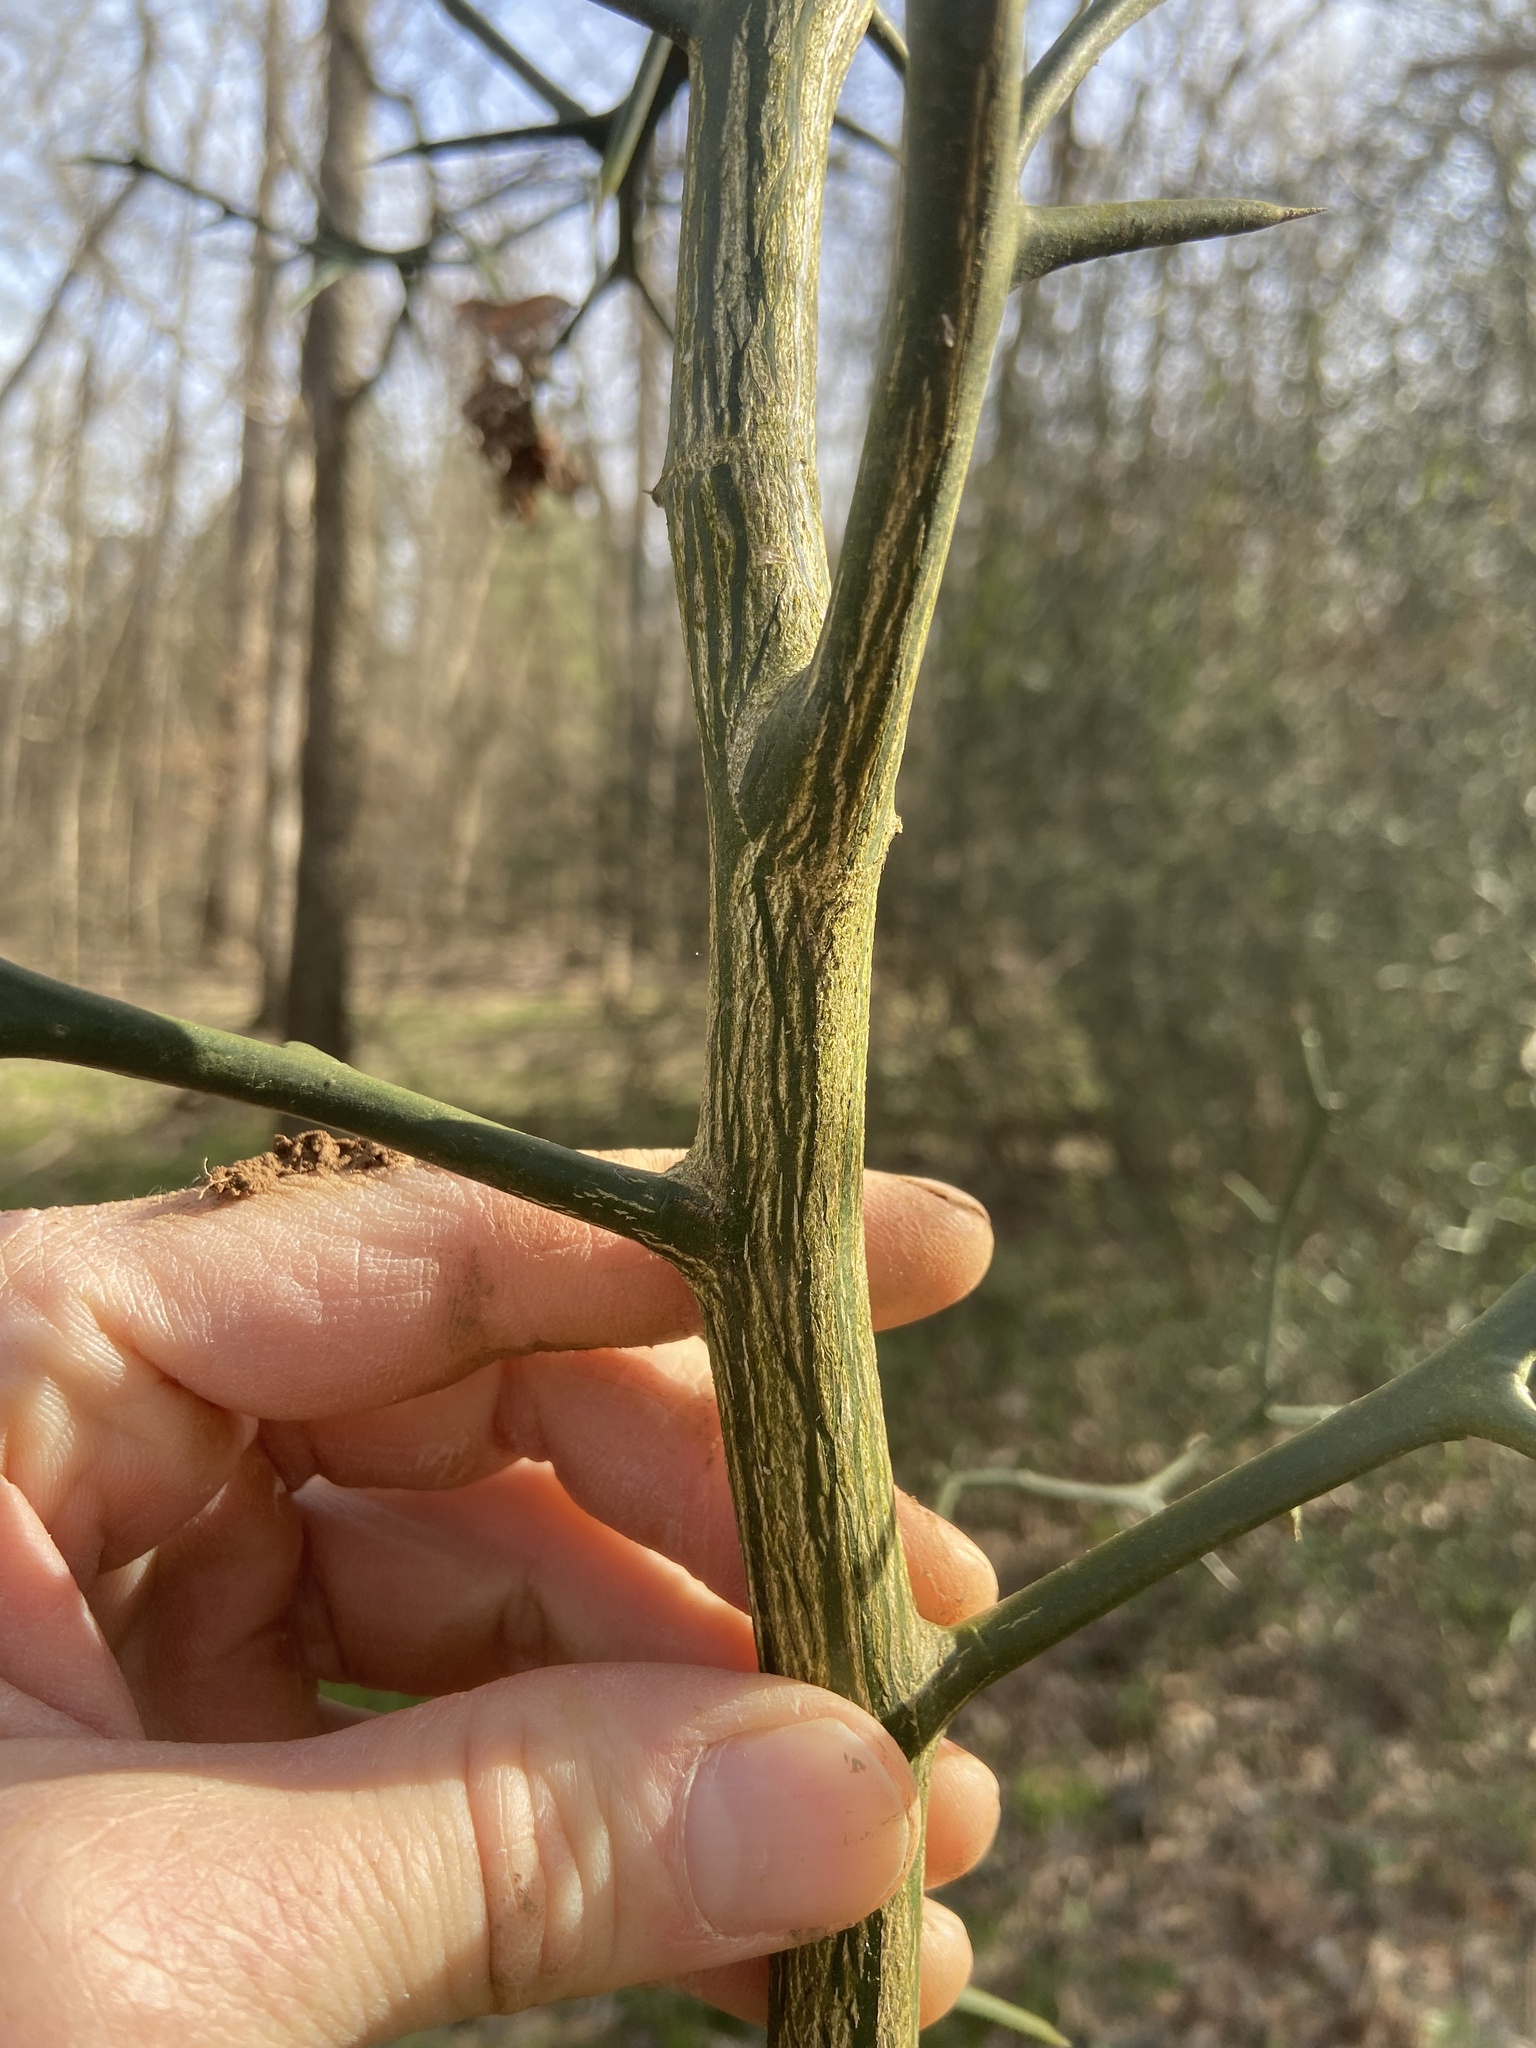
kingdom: Plantae
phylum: Tracheophyta
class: Magnoliopsida
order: Sapindales
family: Rutaceae
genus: Citrus
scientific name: Citrus trifoliata
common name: Japanese bitter-orange
